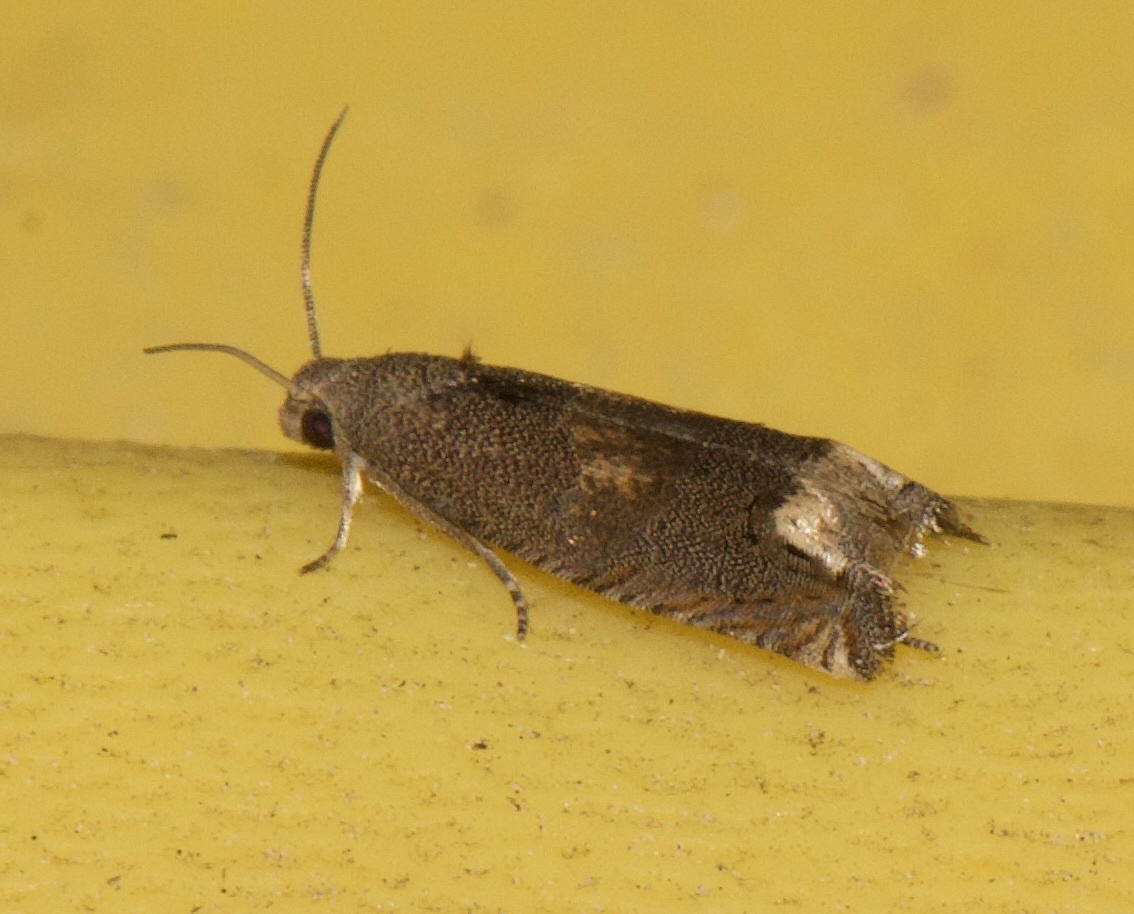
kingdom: Animalia
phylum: Arthropoda
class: Insecta
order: Lepidoptera
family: Tortricidae
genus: Epiblema
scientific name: Epiblema strenuana
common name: Ragweed borer moth
